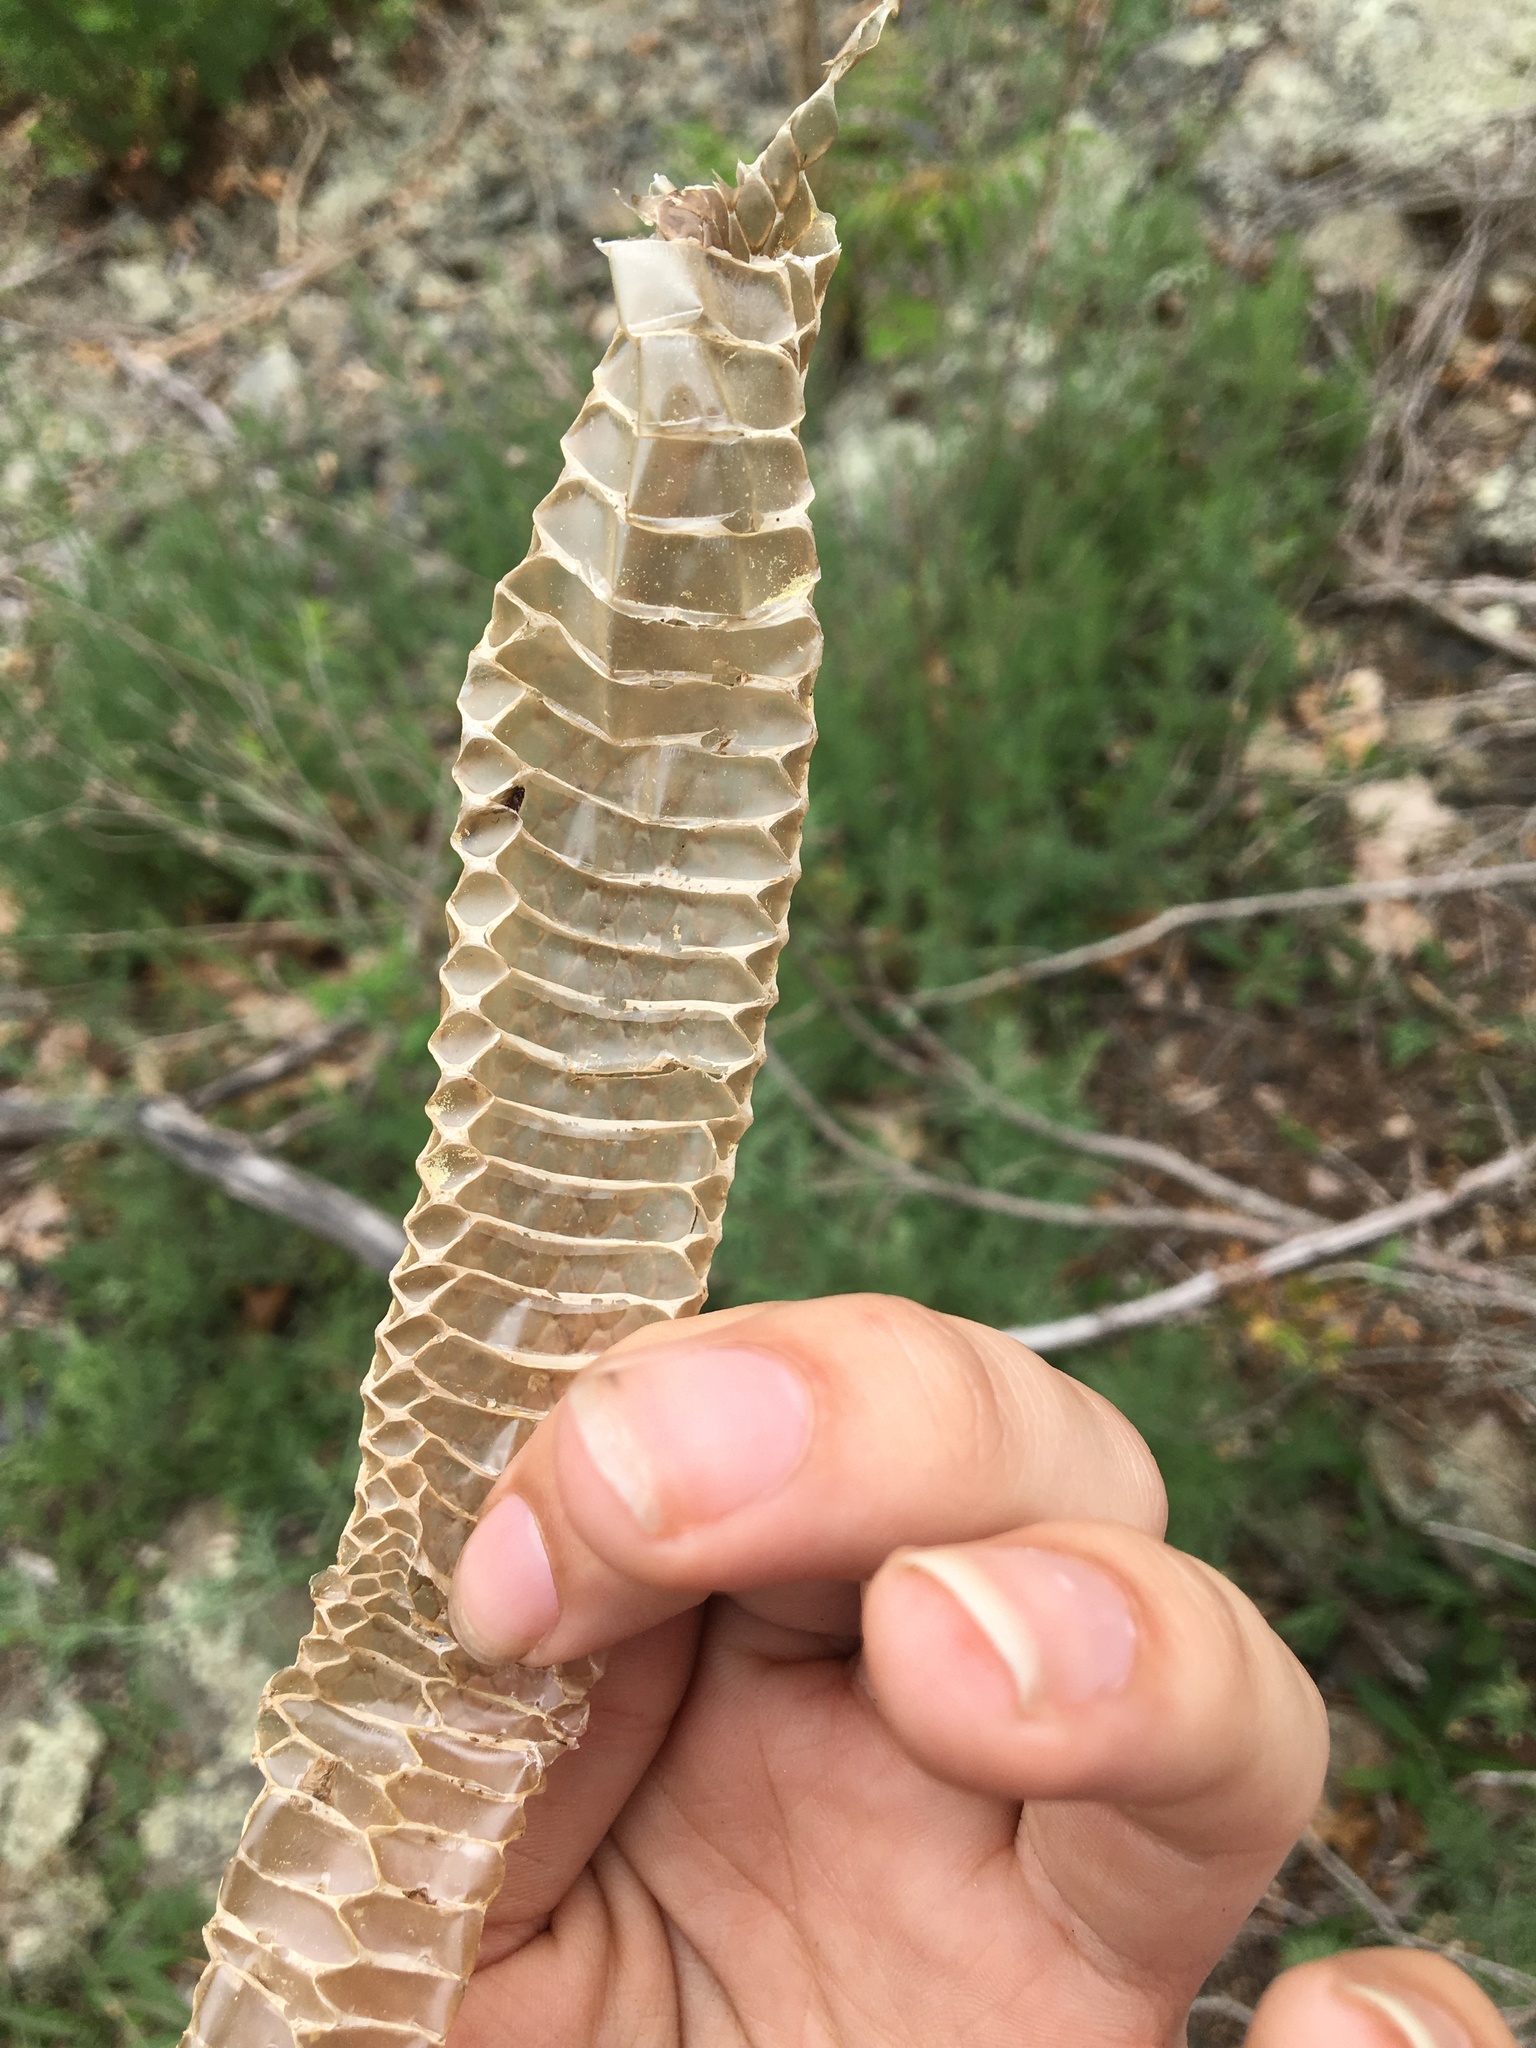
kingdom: Animalia
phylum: Chordata
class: Squamata
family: Colubridae
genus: Coluber
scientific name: Coluber constrictor
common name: Eastern racer
